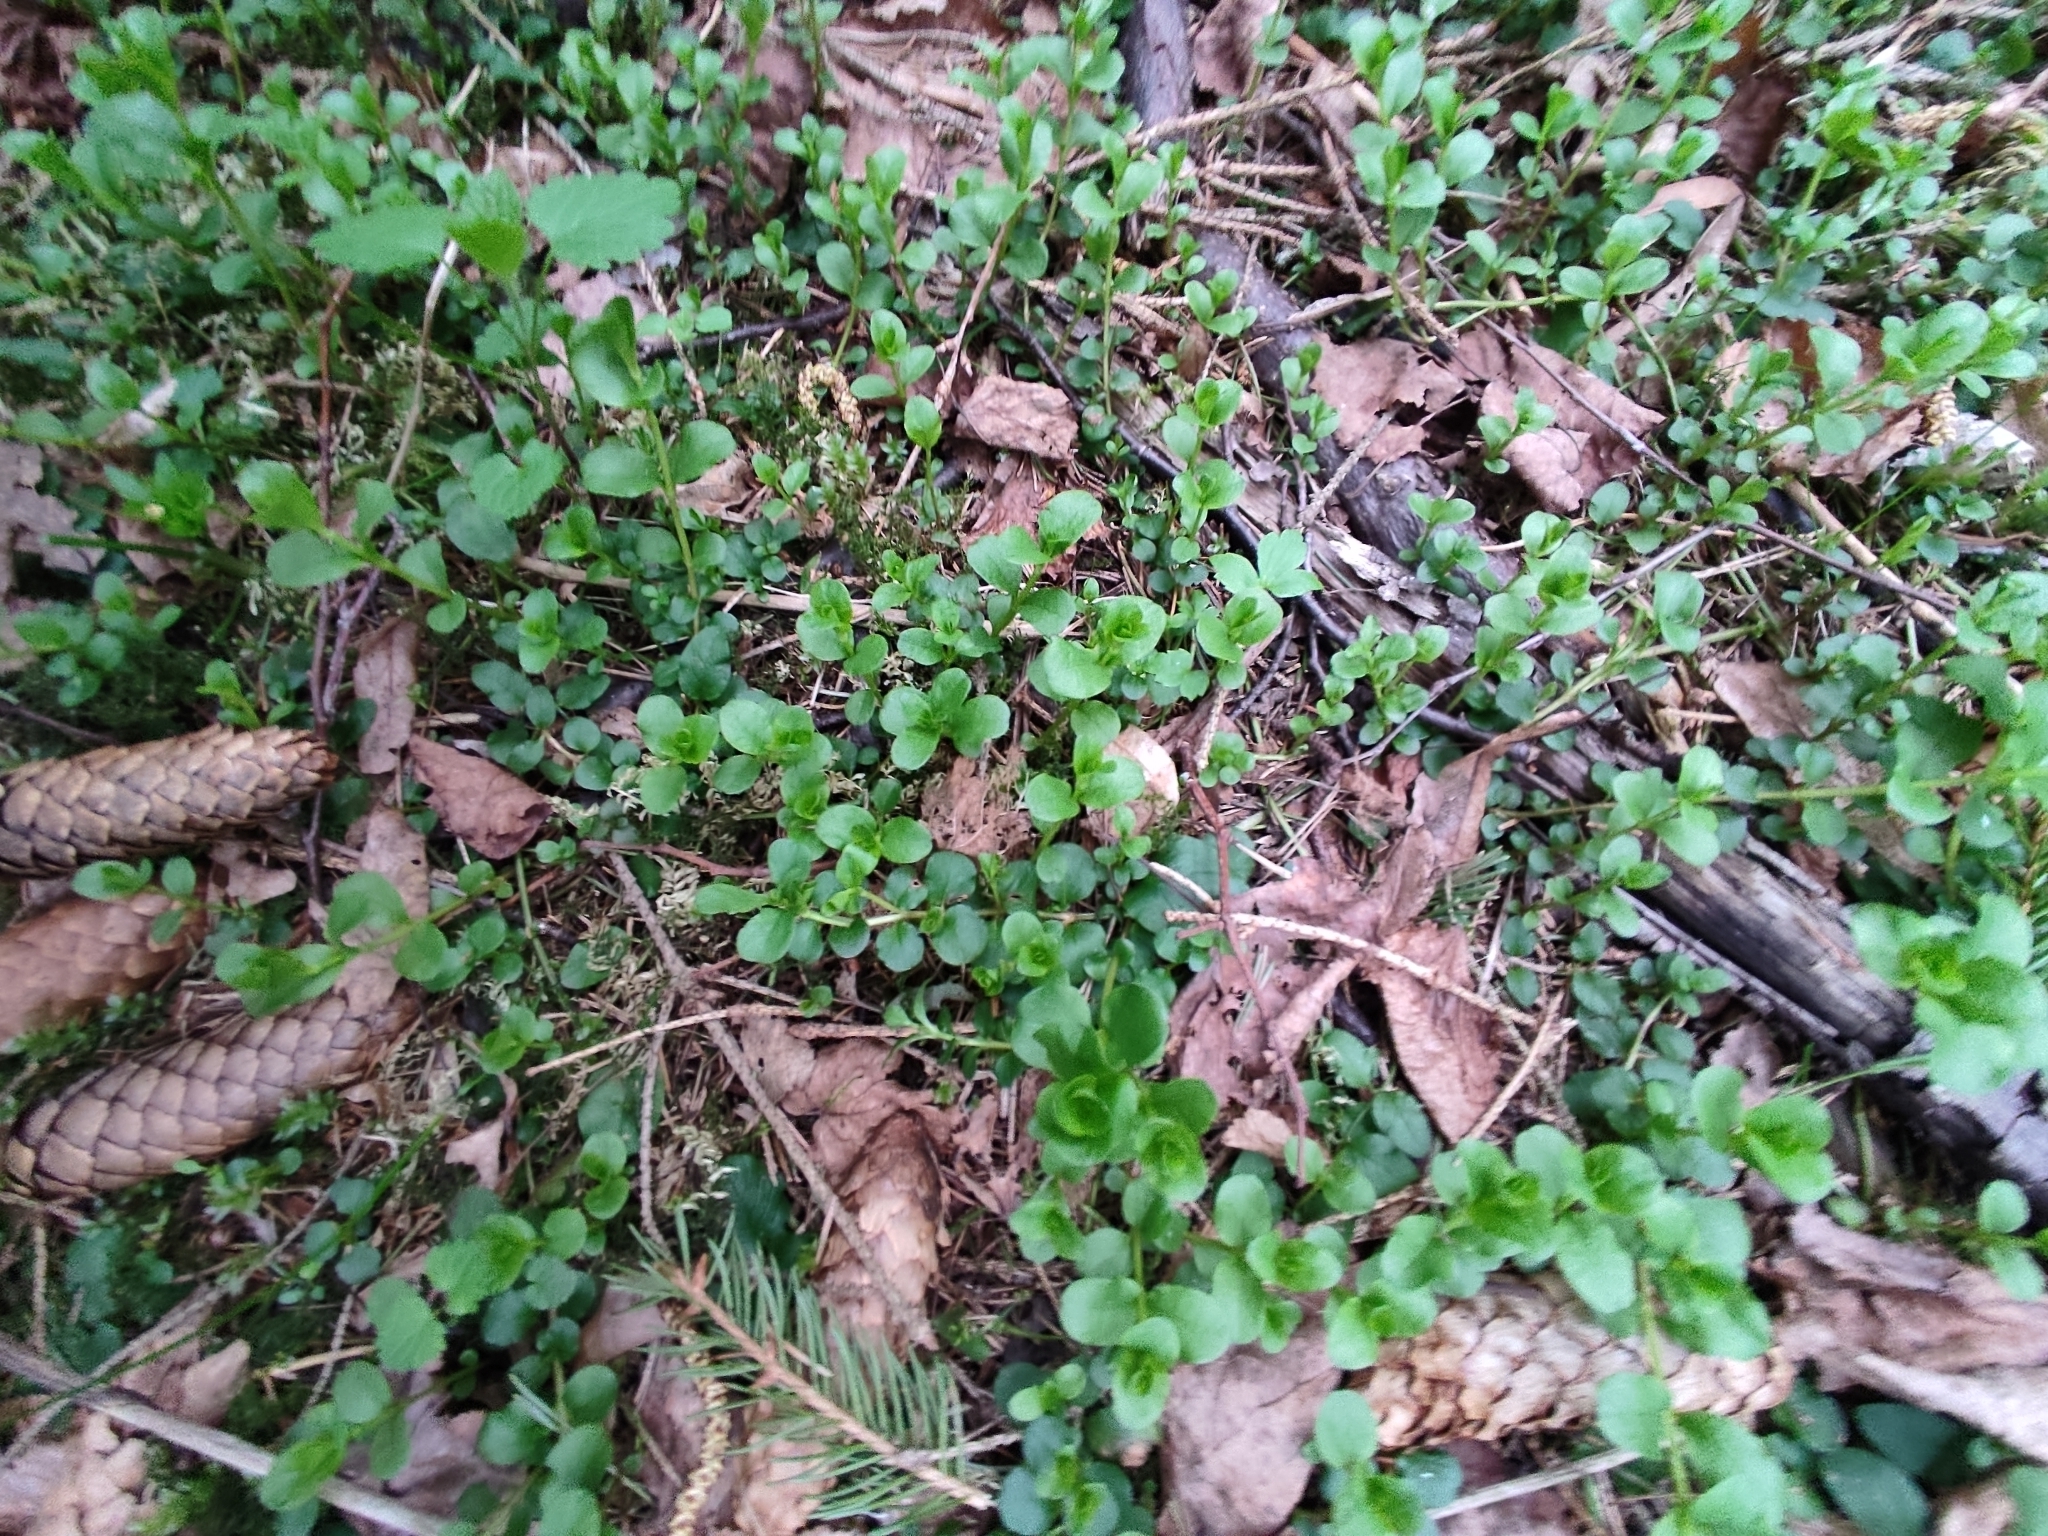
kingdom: Plantae
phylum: Tracheophyta
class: Magnoliopsida
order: Ericales
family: Primulaceae
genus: Lysimachia
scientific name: Lysimachia nummularia
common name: Moneywort
